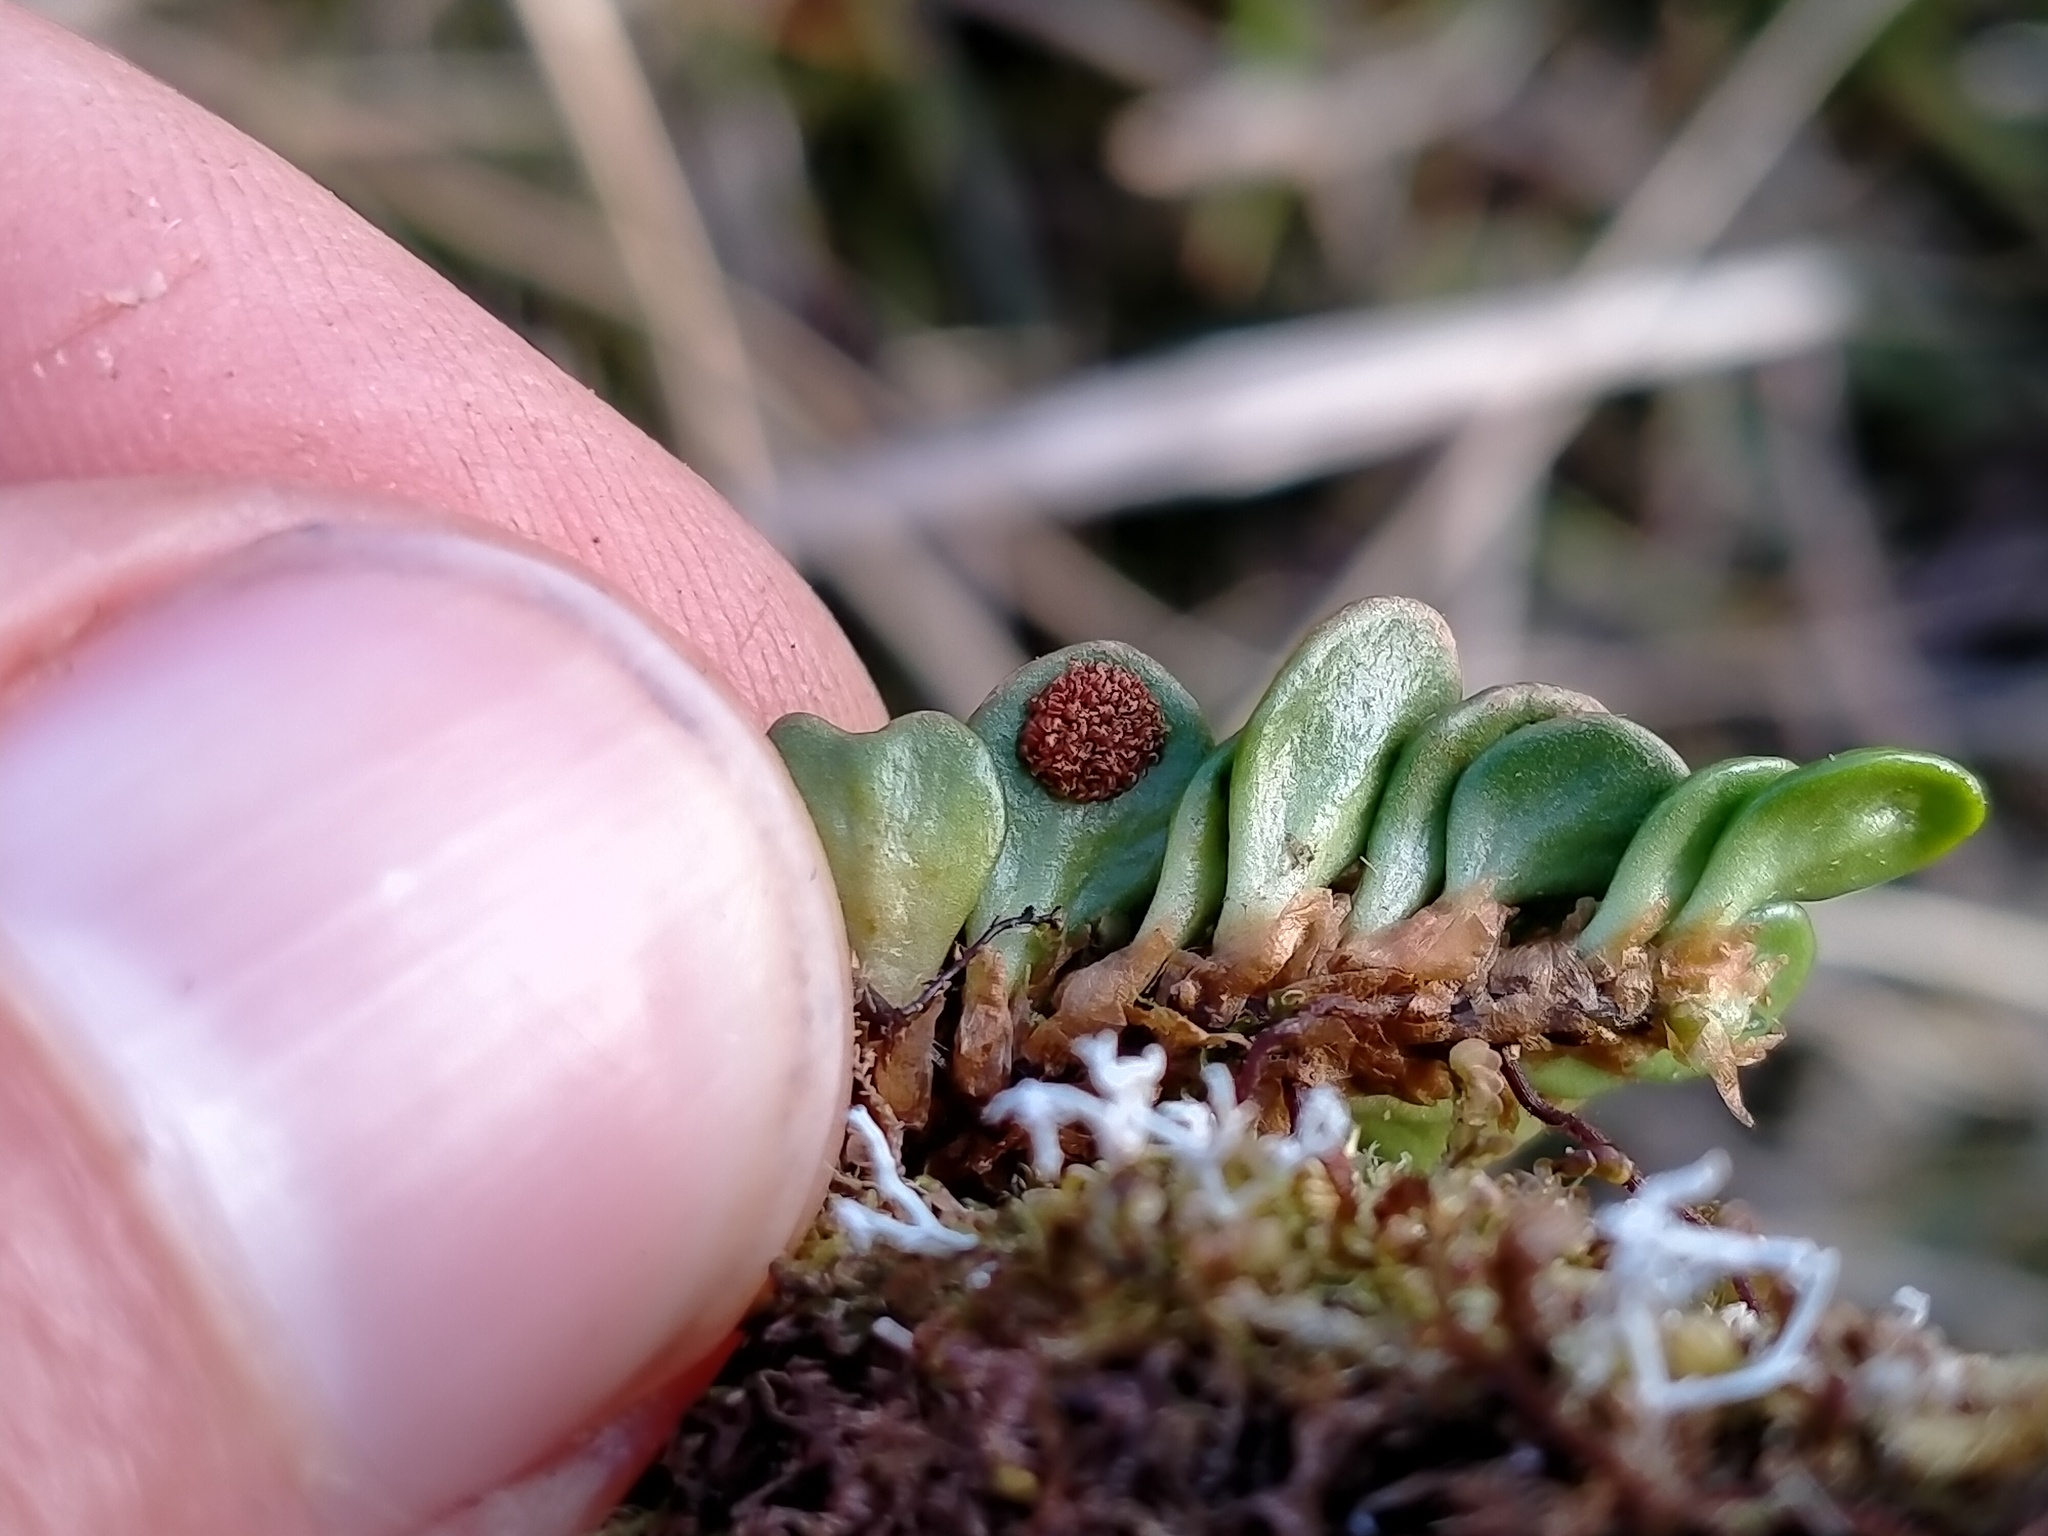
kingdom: Plantae
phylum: Tracheophyta
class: Polypodiopsida
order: Polypodiales
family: Polypodiaceae
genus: Notogrammitis
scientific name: Notogrammitis crassior
